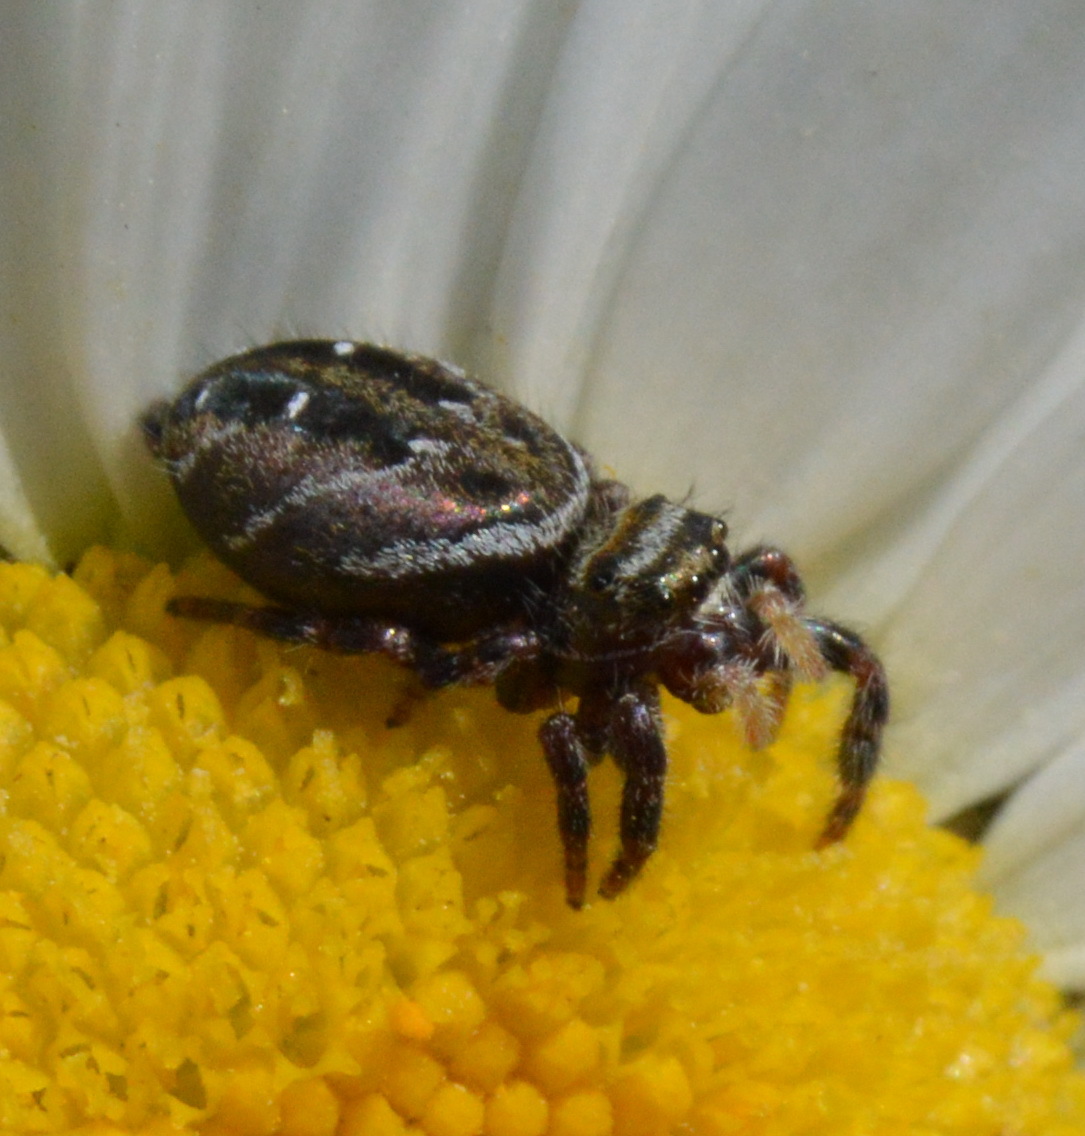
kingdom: Animalia
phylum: Arthropoda
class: Arachnida
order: Araneae
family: Salticidae
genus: Phidippus
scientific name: Phidippus clarus
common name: Brilliant jumping spider
